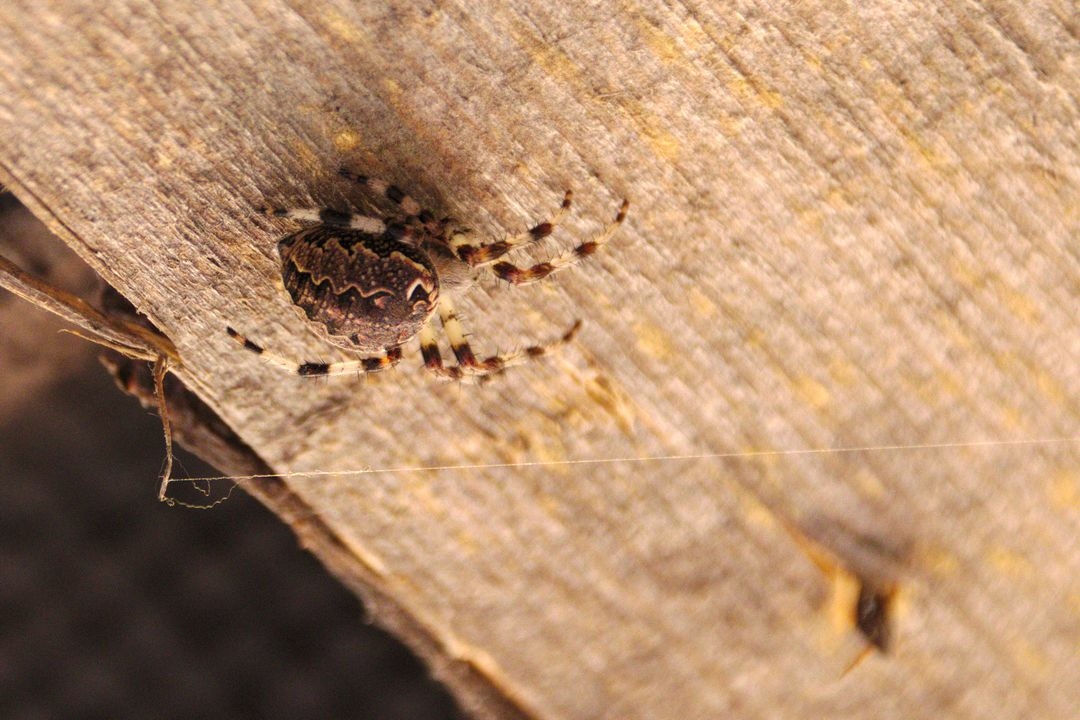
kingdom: Animalia
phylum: Arthropoda
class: Arachnida
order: Araneae
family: Araneidae
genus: Araneus
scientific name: Araneus marmoreus
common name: Marbled orbweaver
